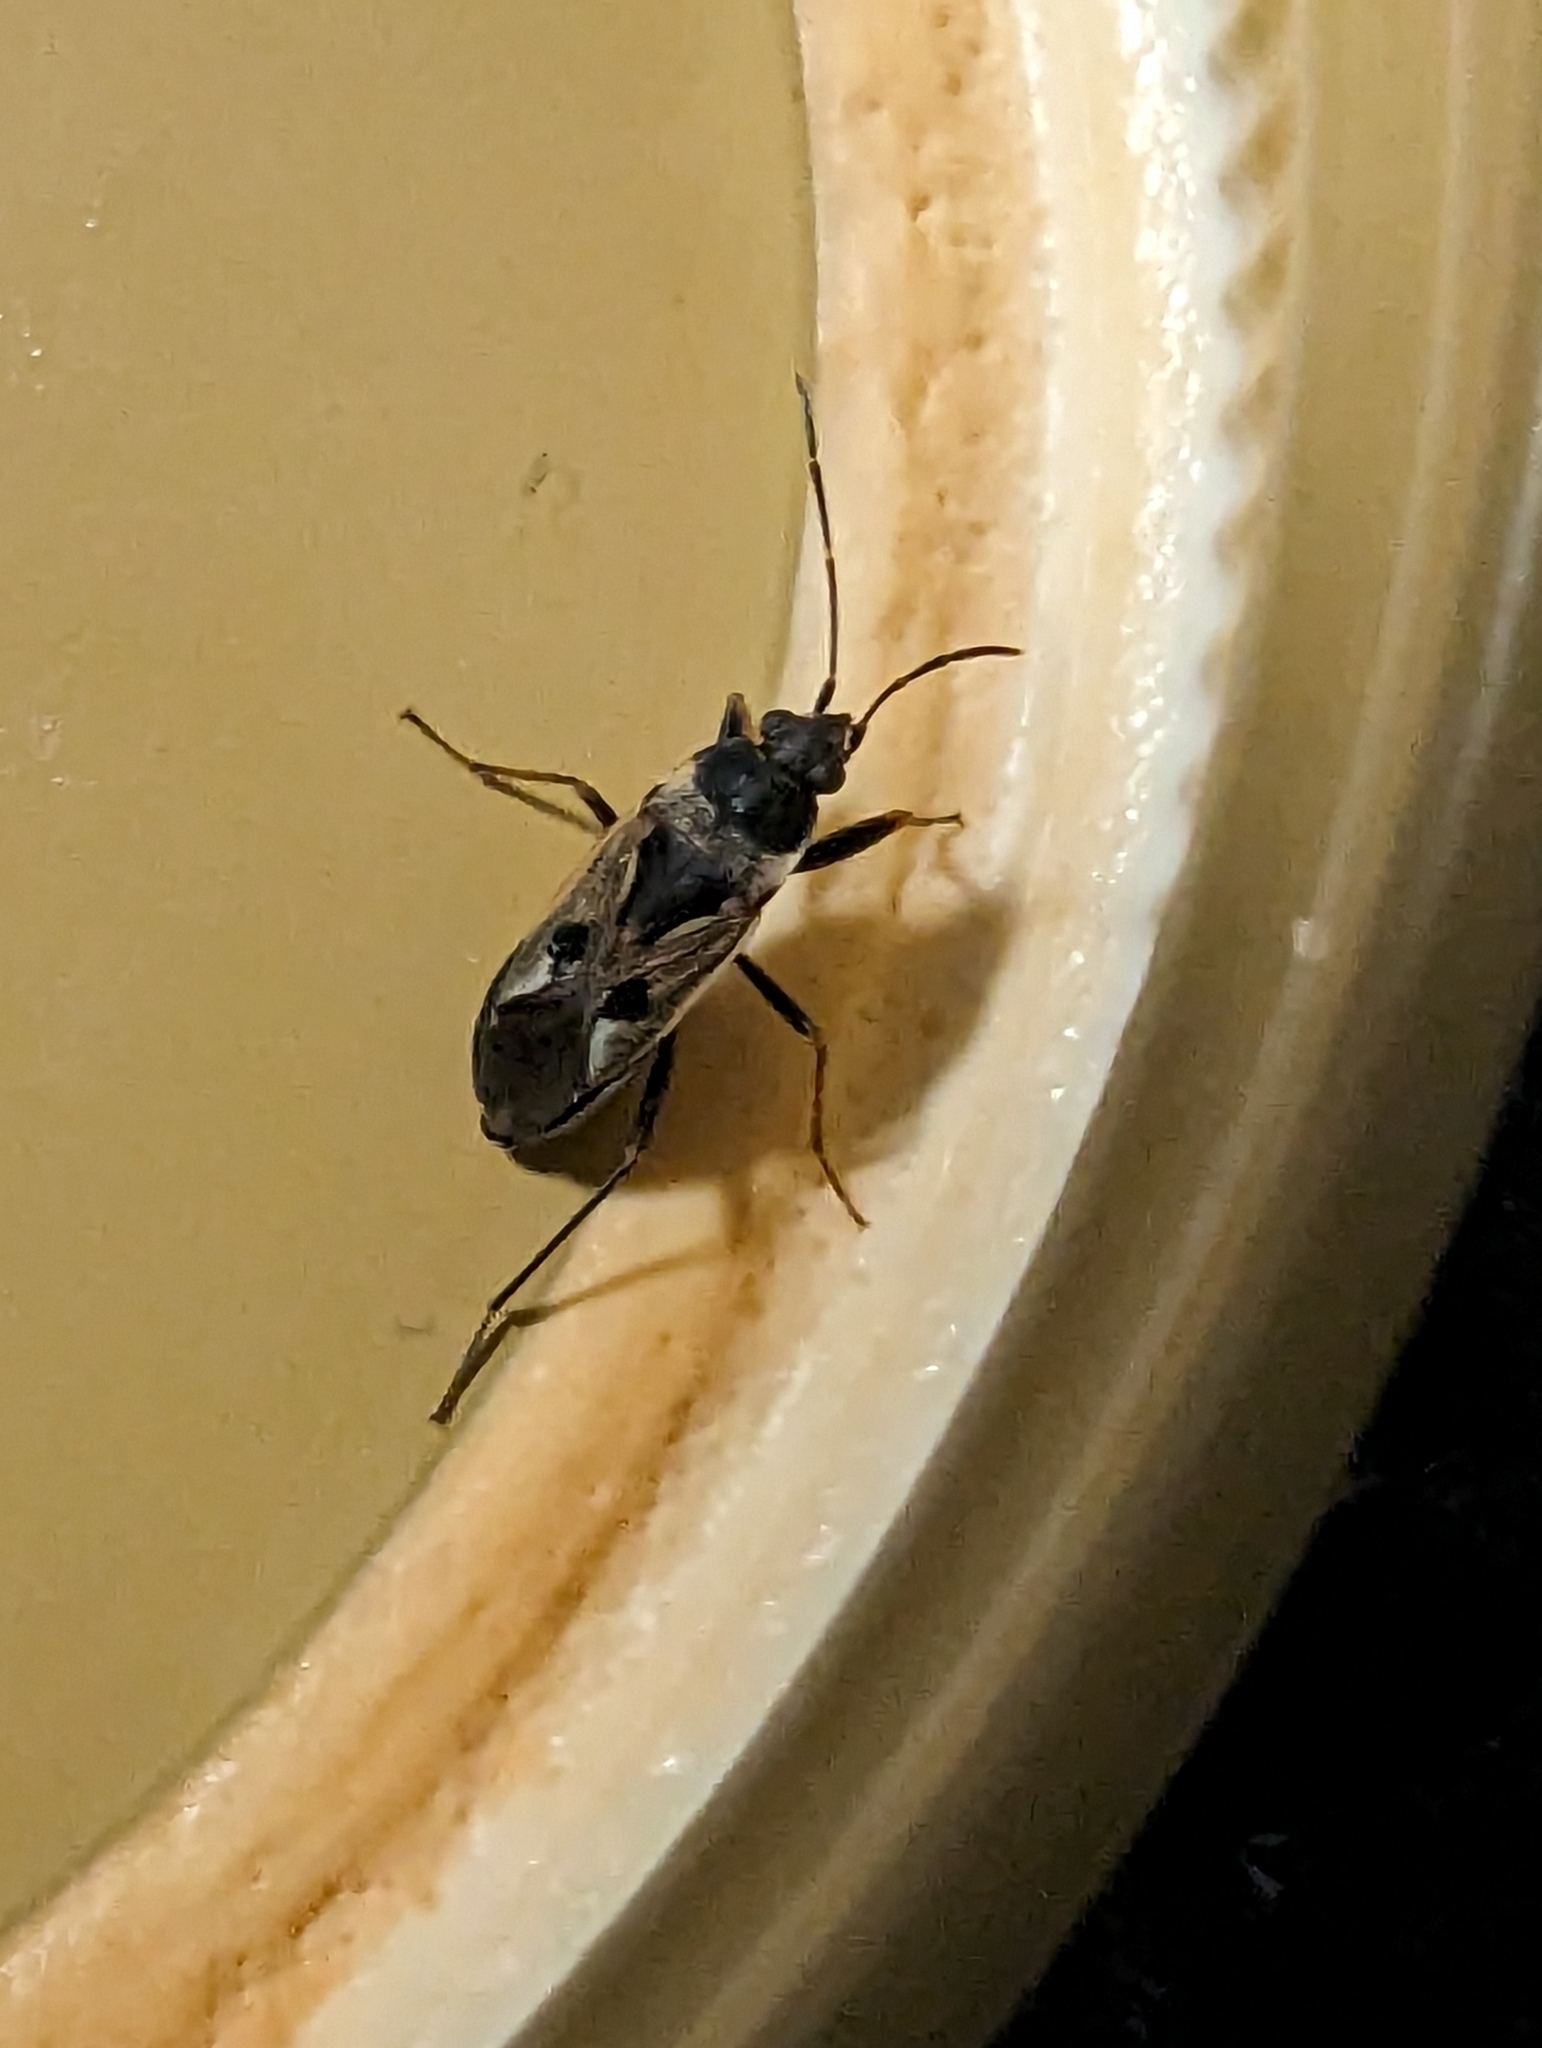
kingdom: Animalia
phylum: Arthropoda
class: Insecta
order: Hemiptera
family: Rhyparochromidae
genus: Rhyparochromus
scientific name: Rhyparochromus vulgaris
